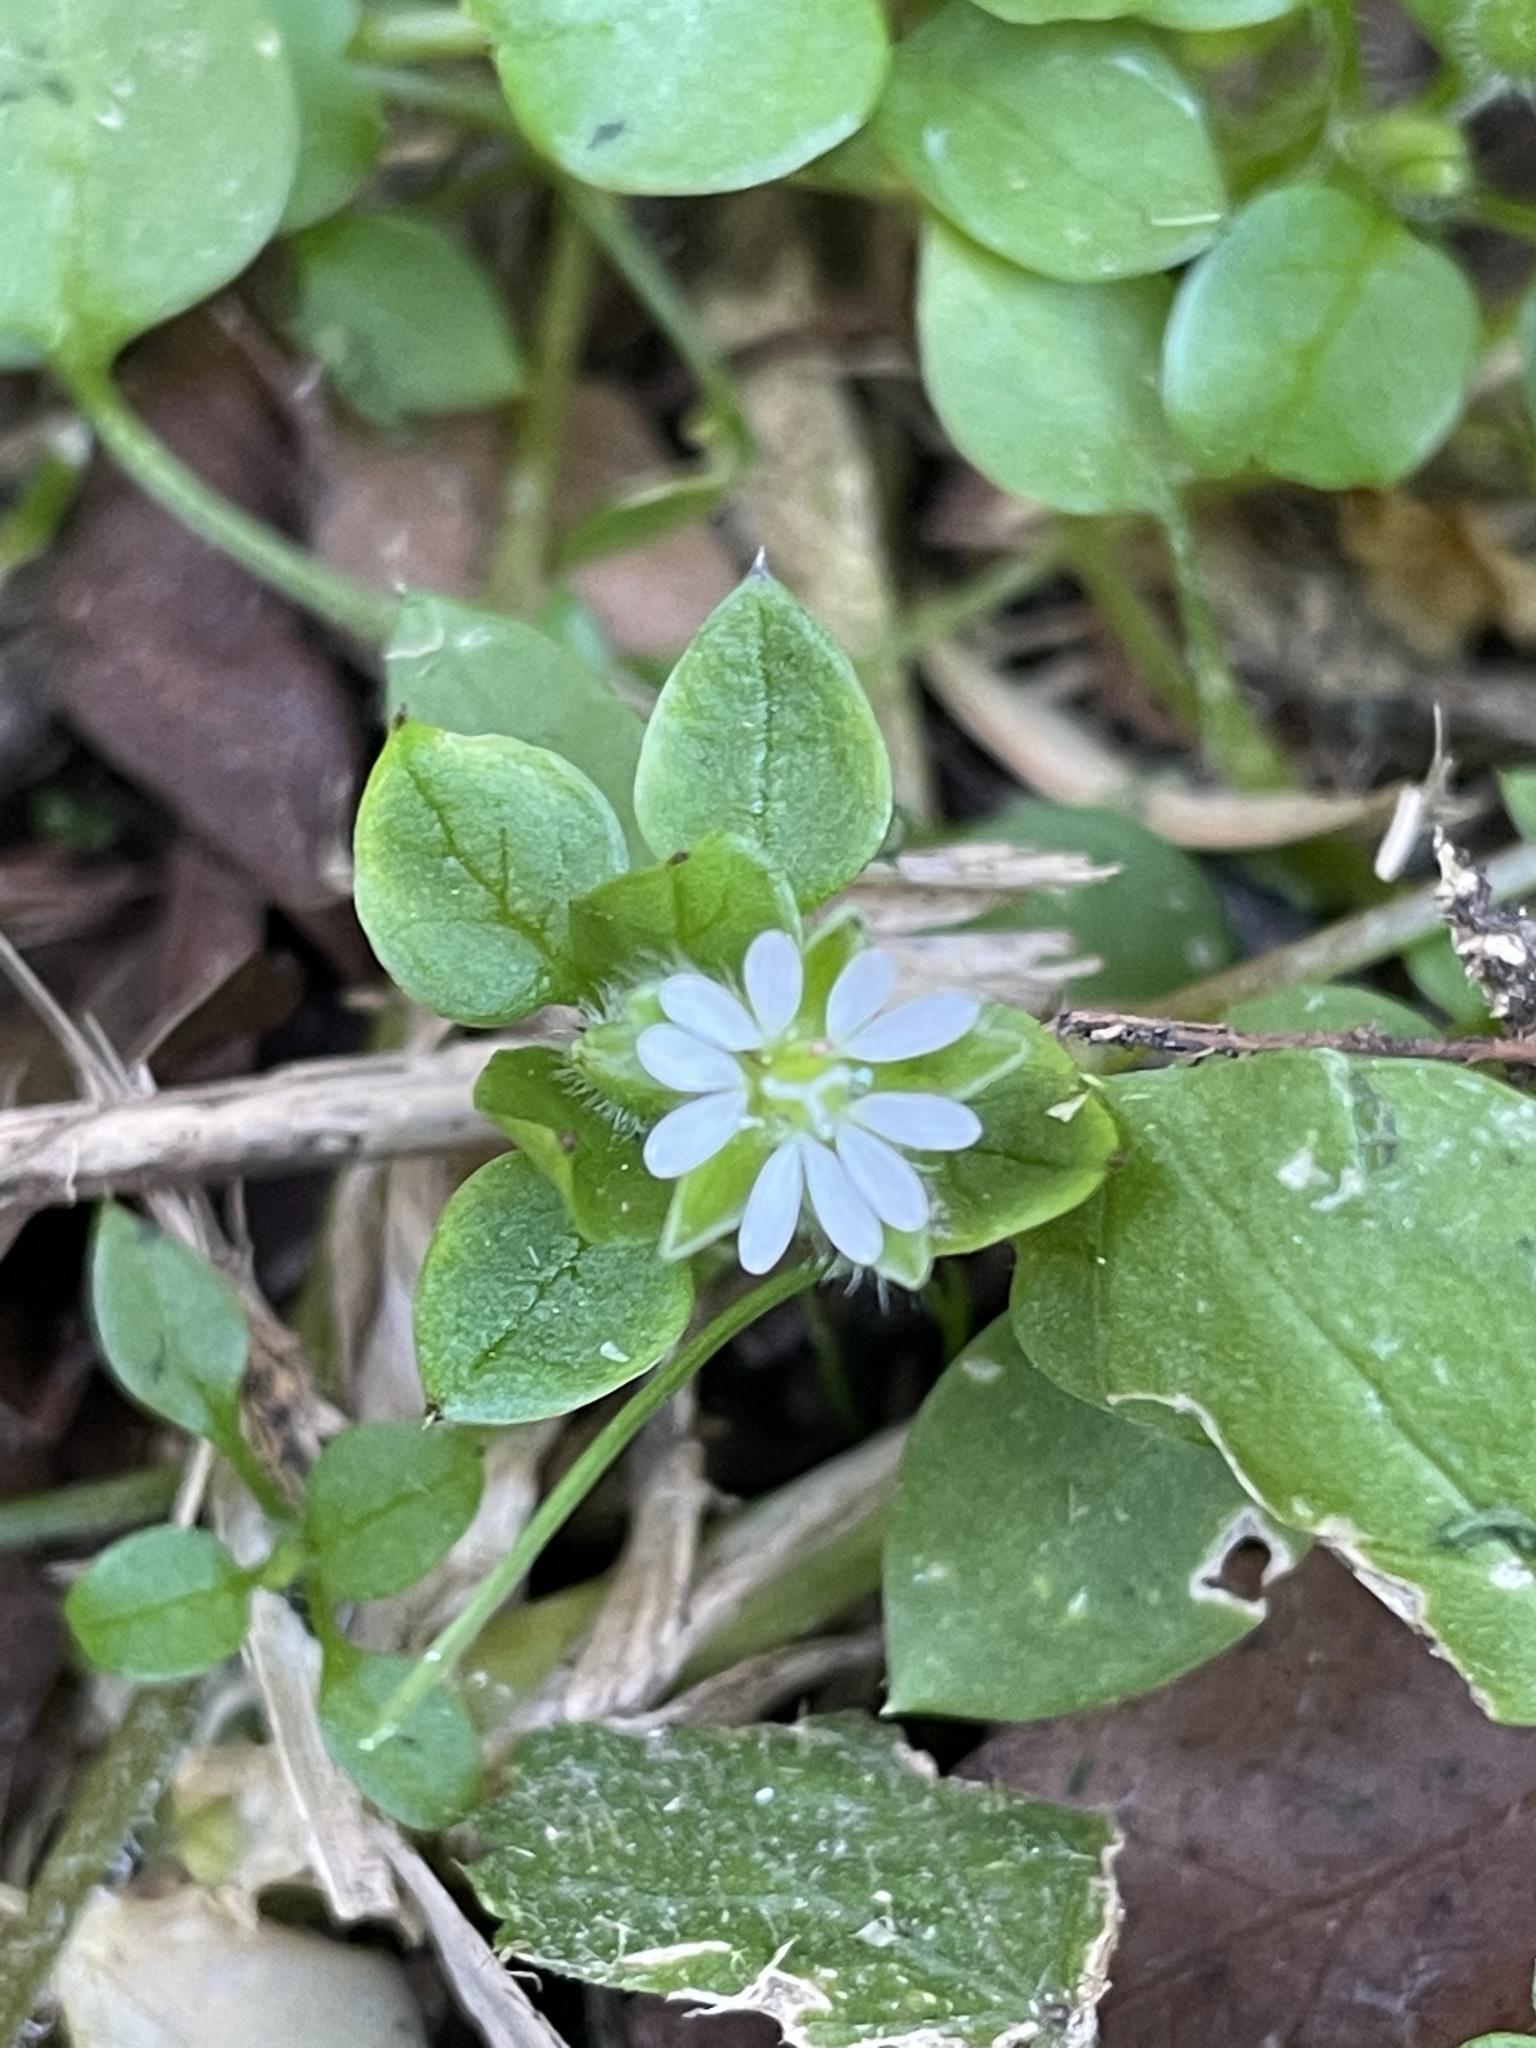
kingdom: Plantae
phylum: Tracheophyta
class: Magnoliopsida
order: Caryophyllales
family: Caryophyllaceae
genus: Stellaria
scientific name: Stellaria media
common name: Common chickweed
